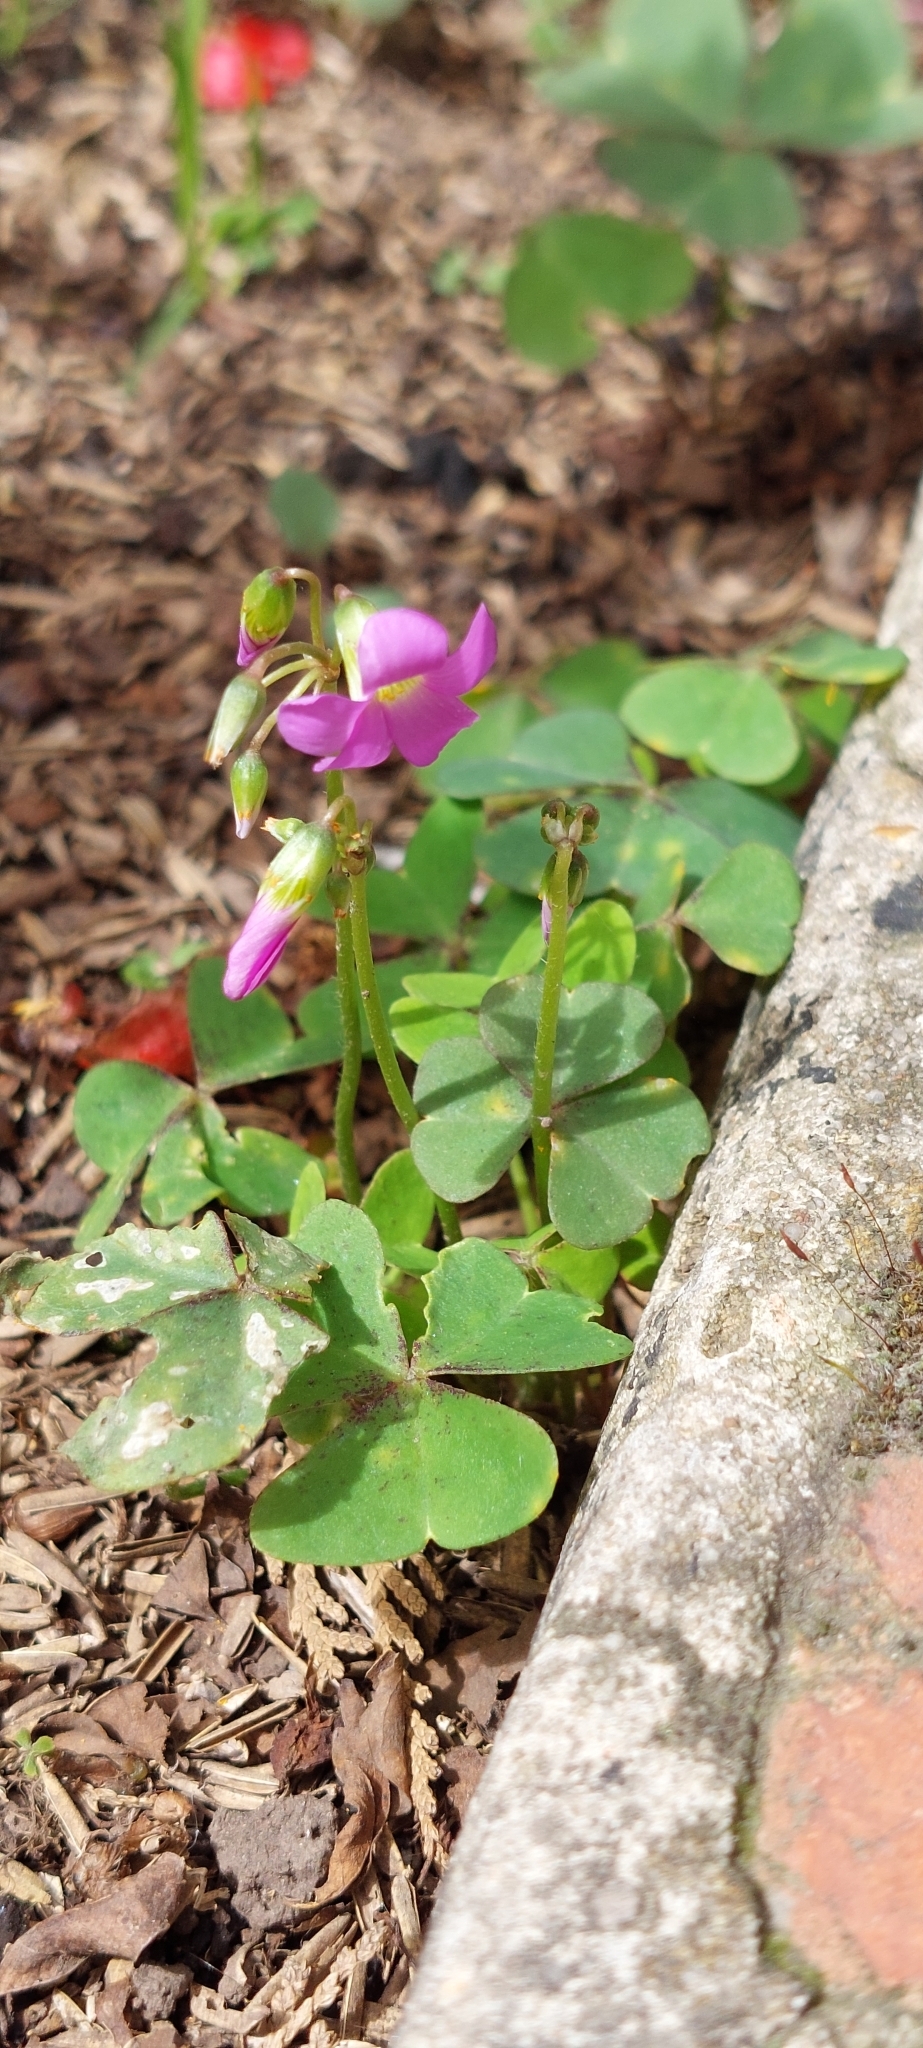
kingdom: Plantae
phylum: Tracheophyta
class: Magnoliopsida
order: Oxalidales
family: Oxalidaceae
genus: Oxalis
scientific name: Oxalis latifolia
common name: Garden pink-sorrel
